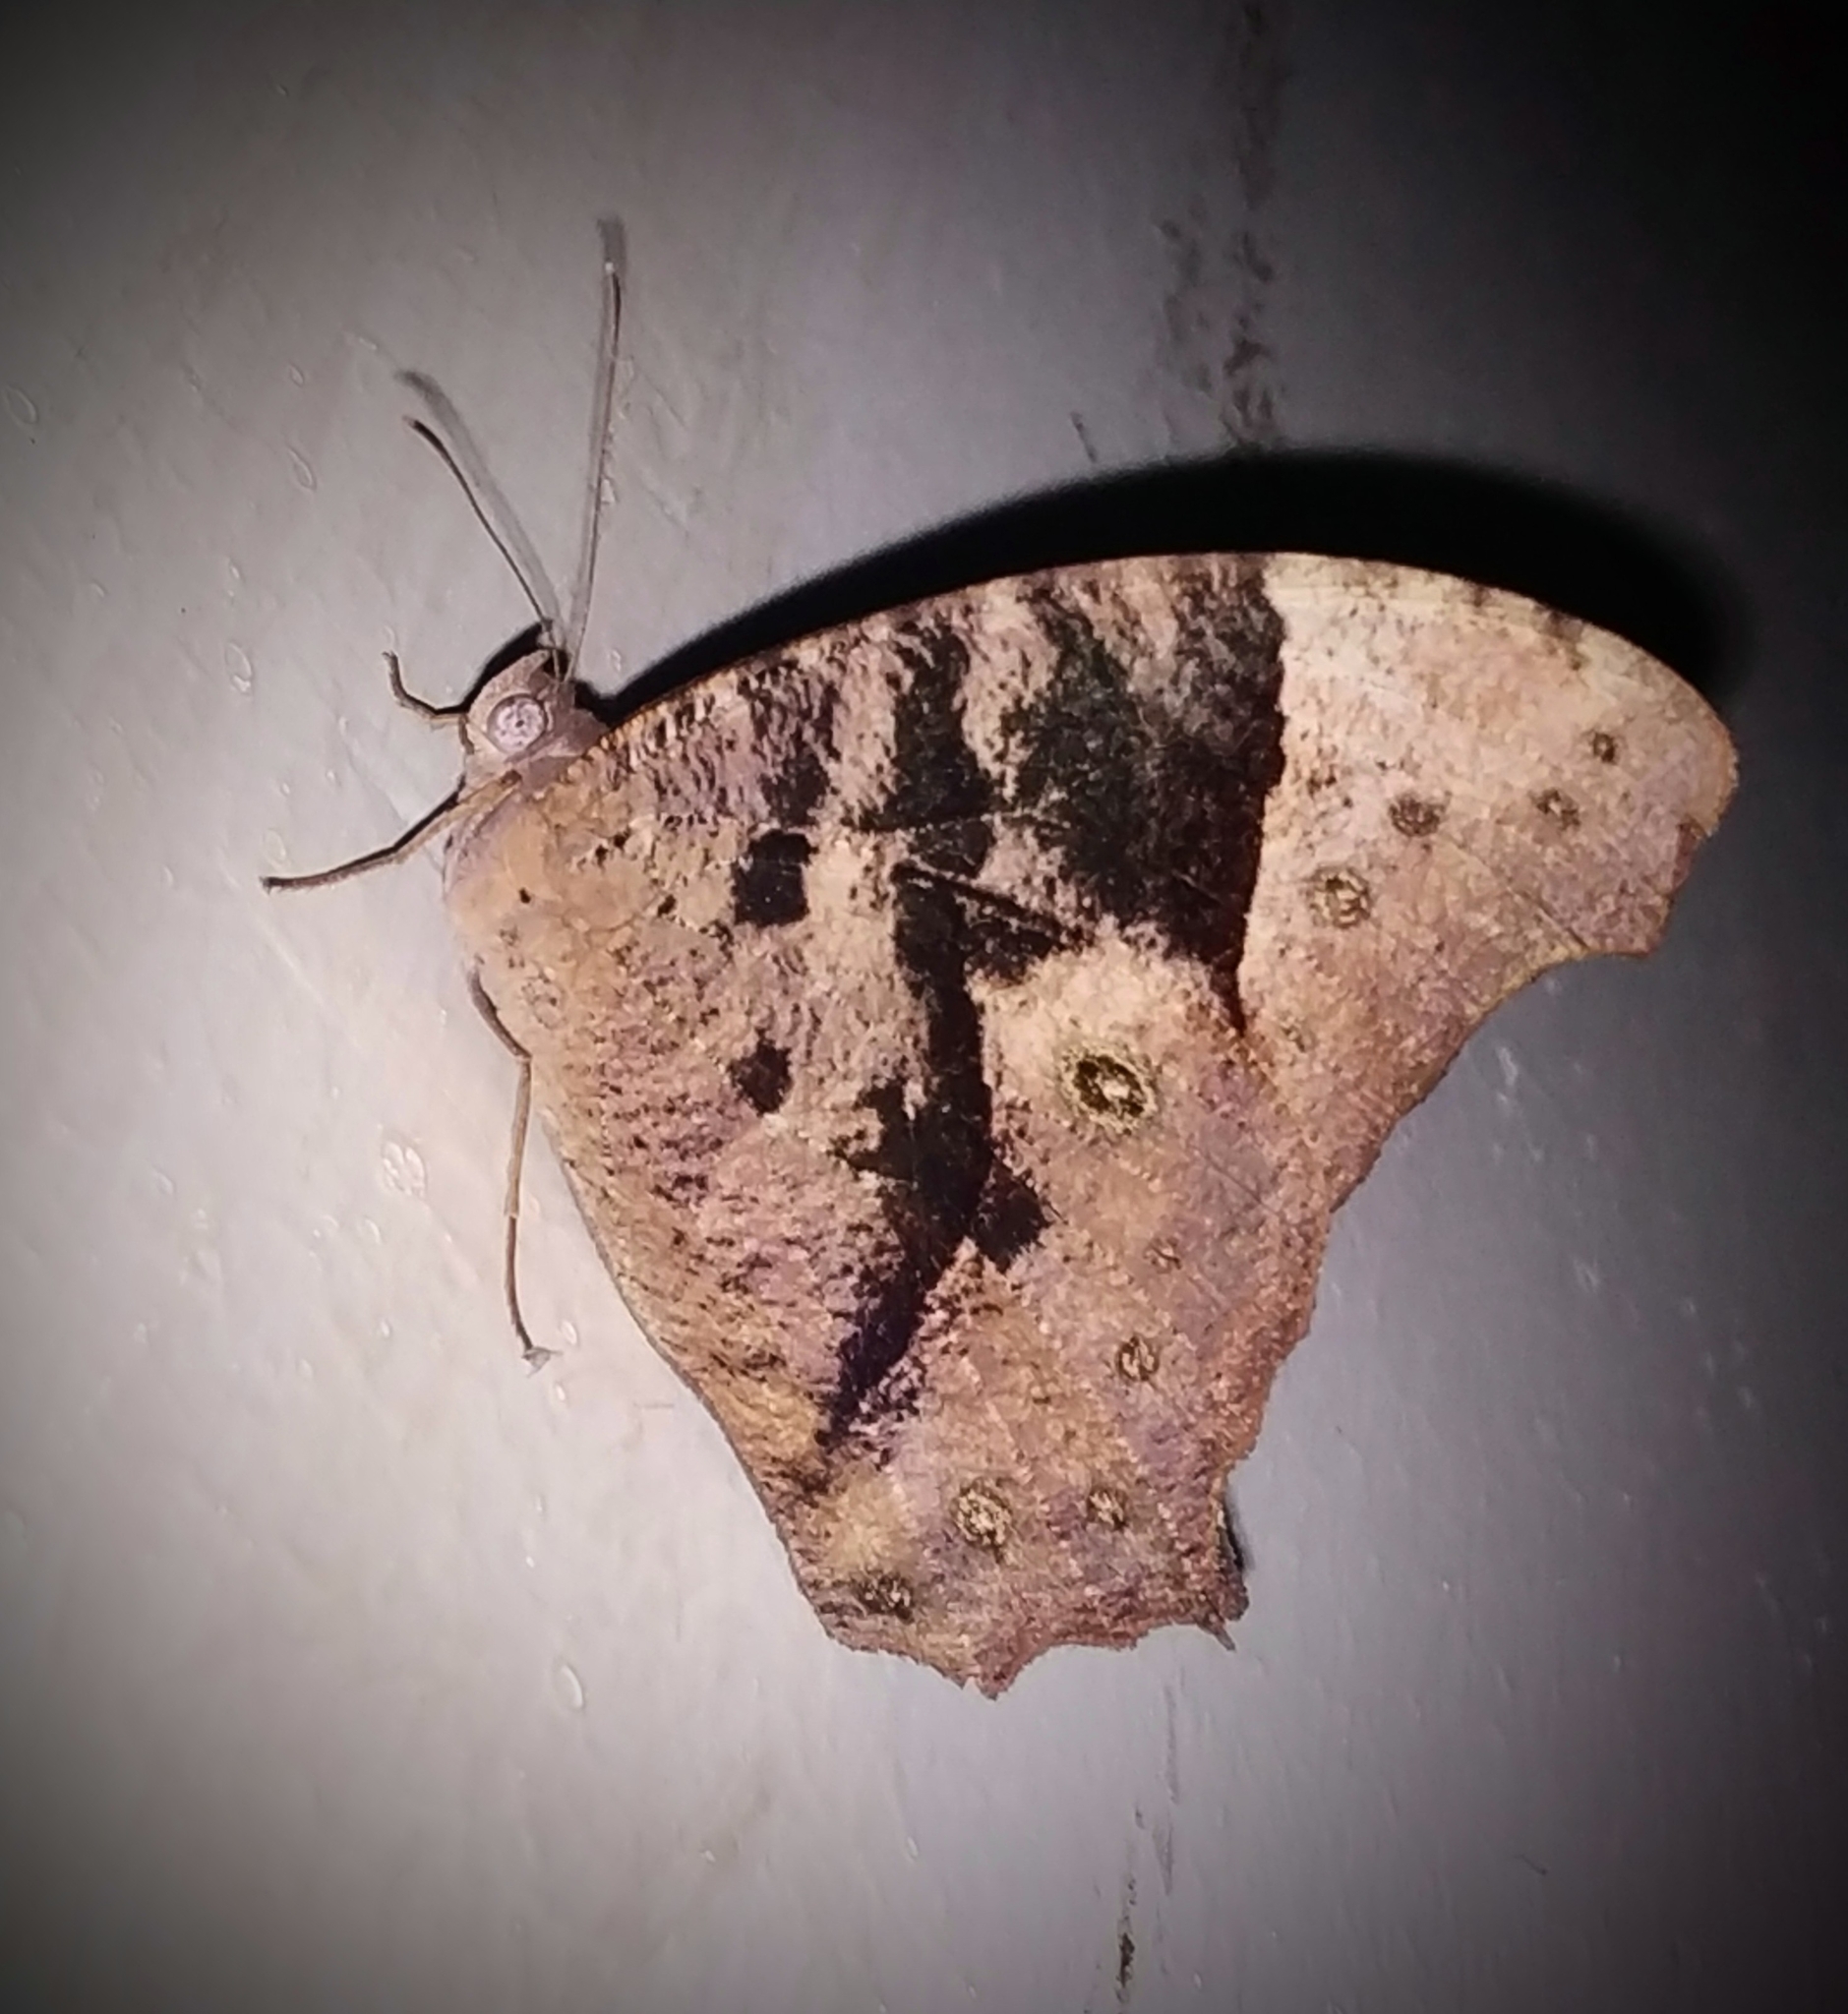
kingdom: Animalia
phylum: Arthropoda
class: Insecta
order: Lepidoptera
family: Nymphalidae
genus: Melanitis
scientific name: Melanitis leda
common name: Twilight brown
